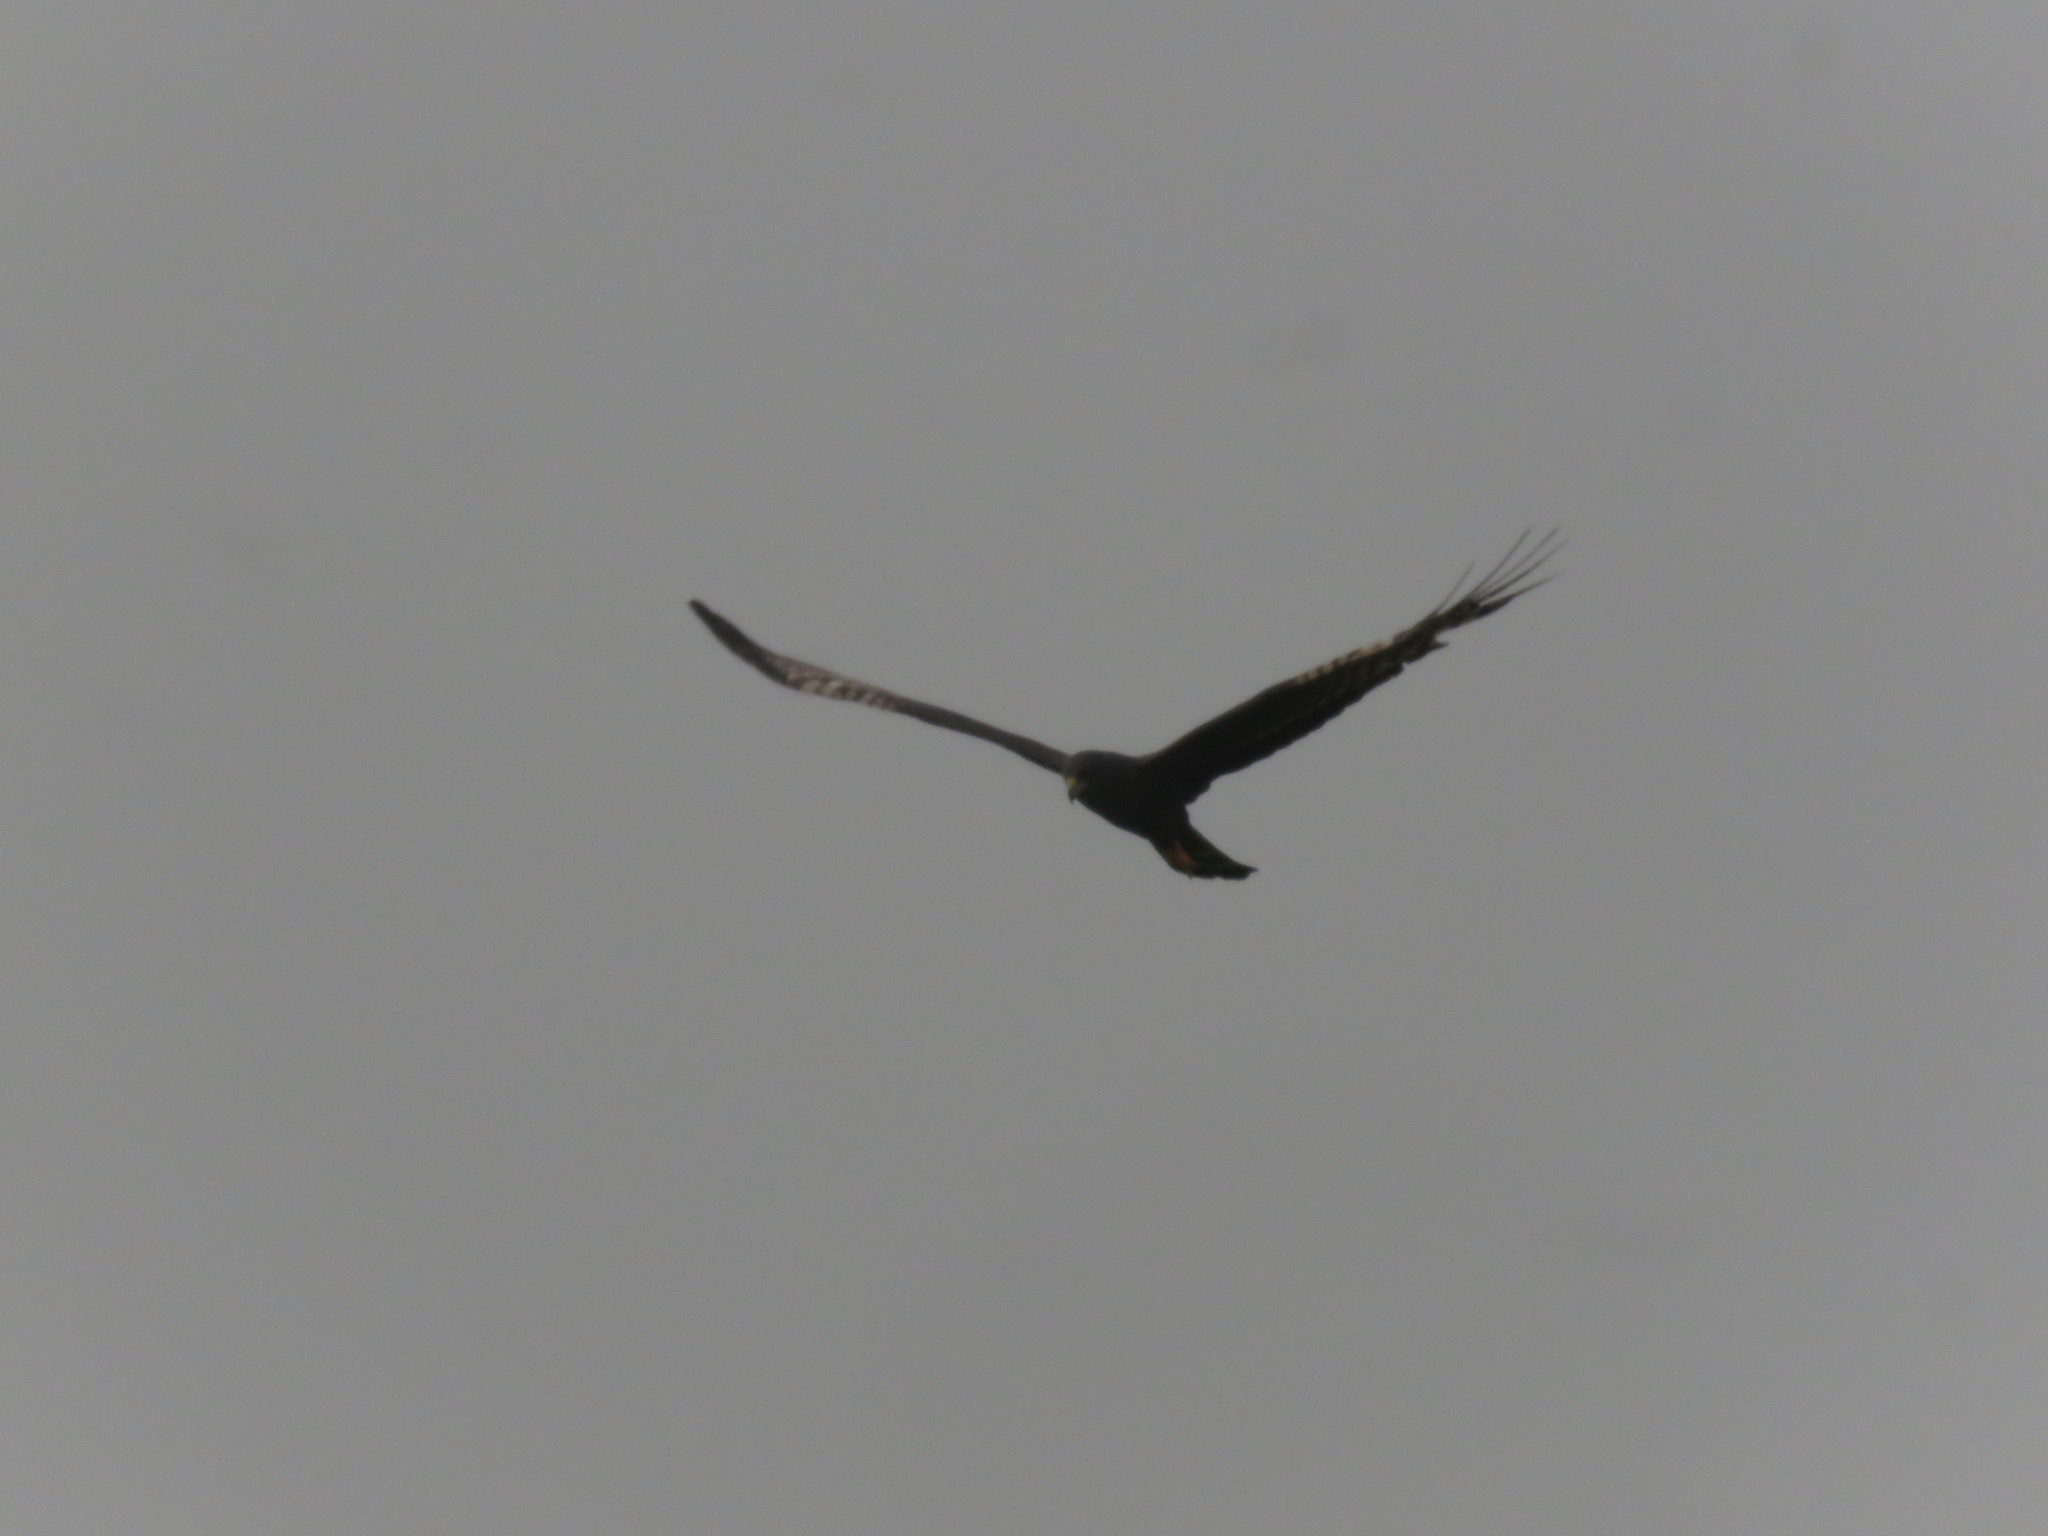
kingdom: Animalia
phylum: Chordata
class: Aves
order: Accipitriformes
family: Accipitridae
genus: Circus
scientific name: Circus buffoni
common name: Long-winged harrier
